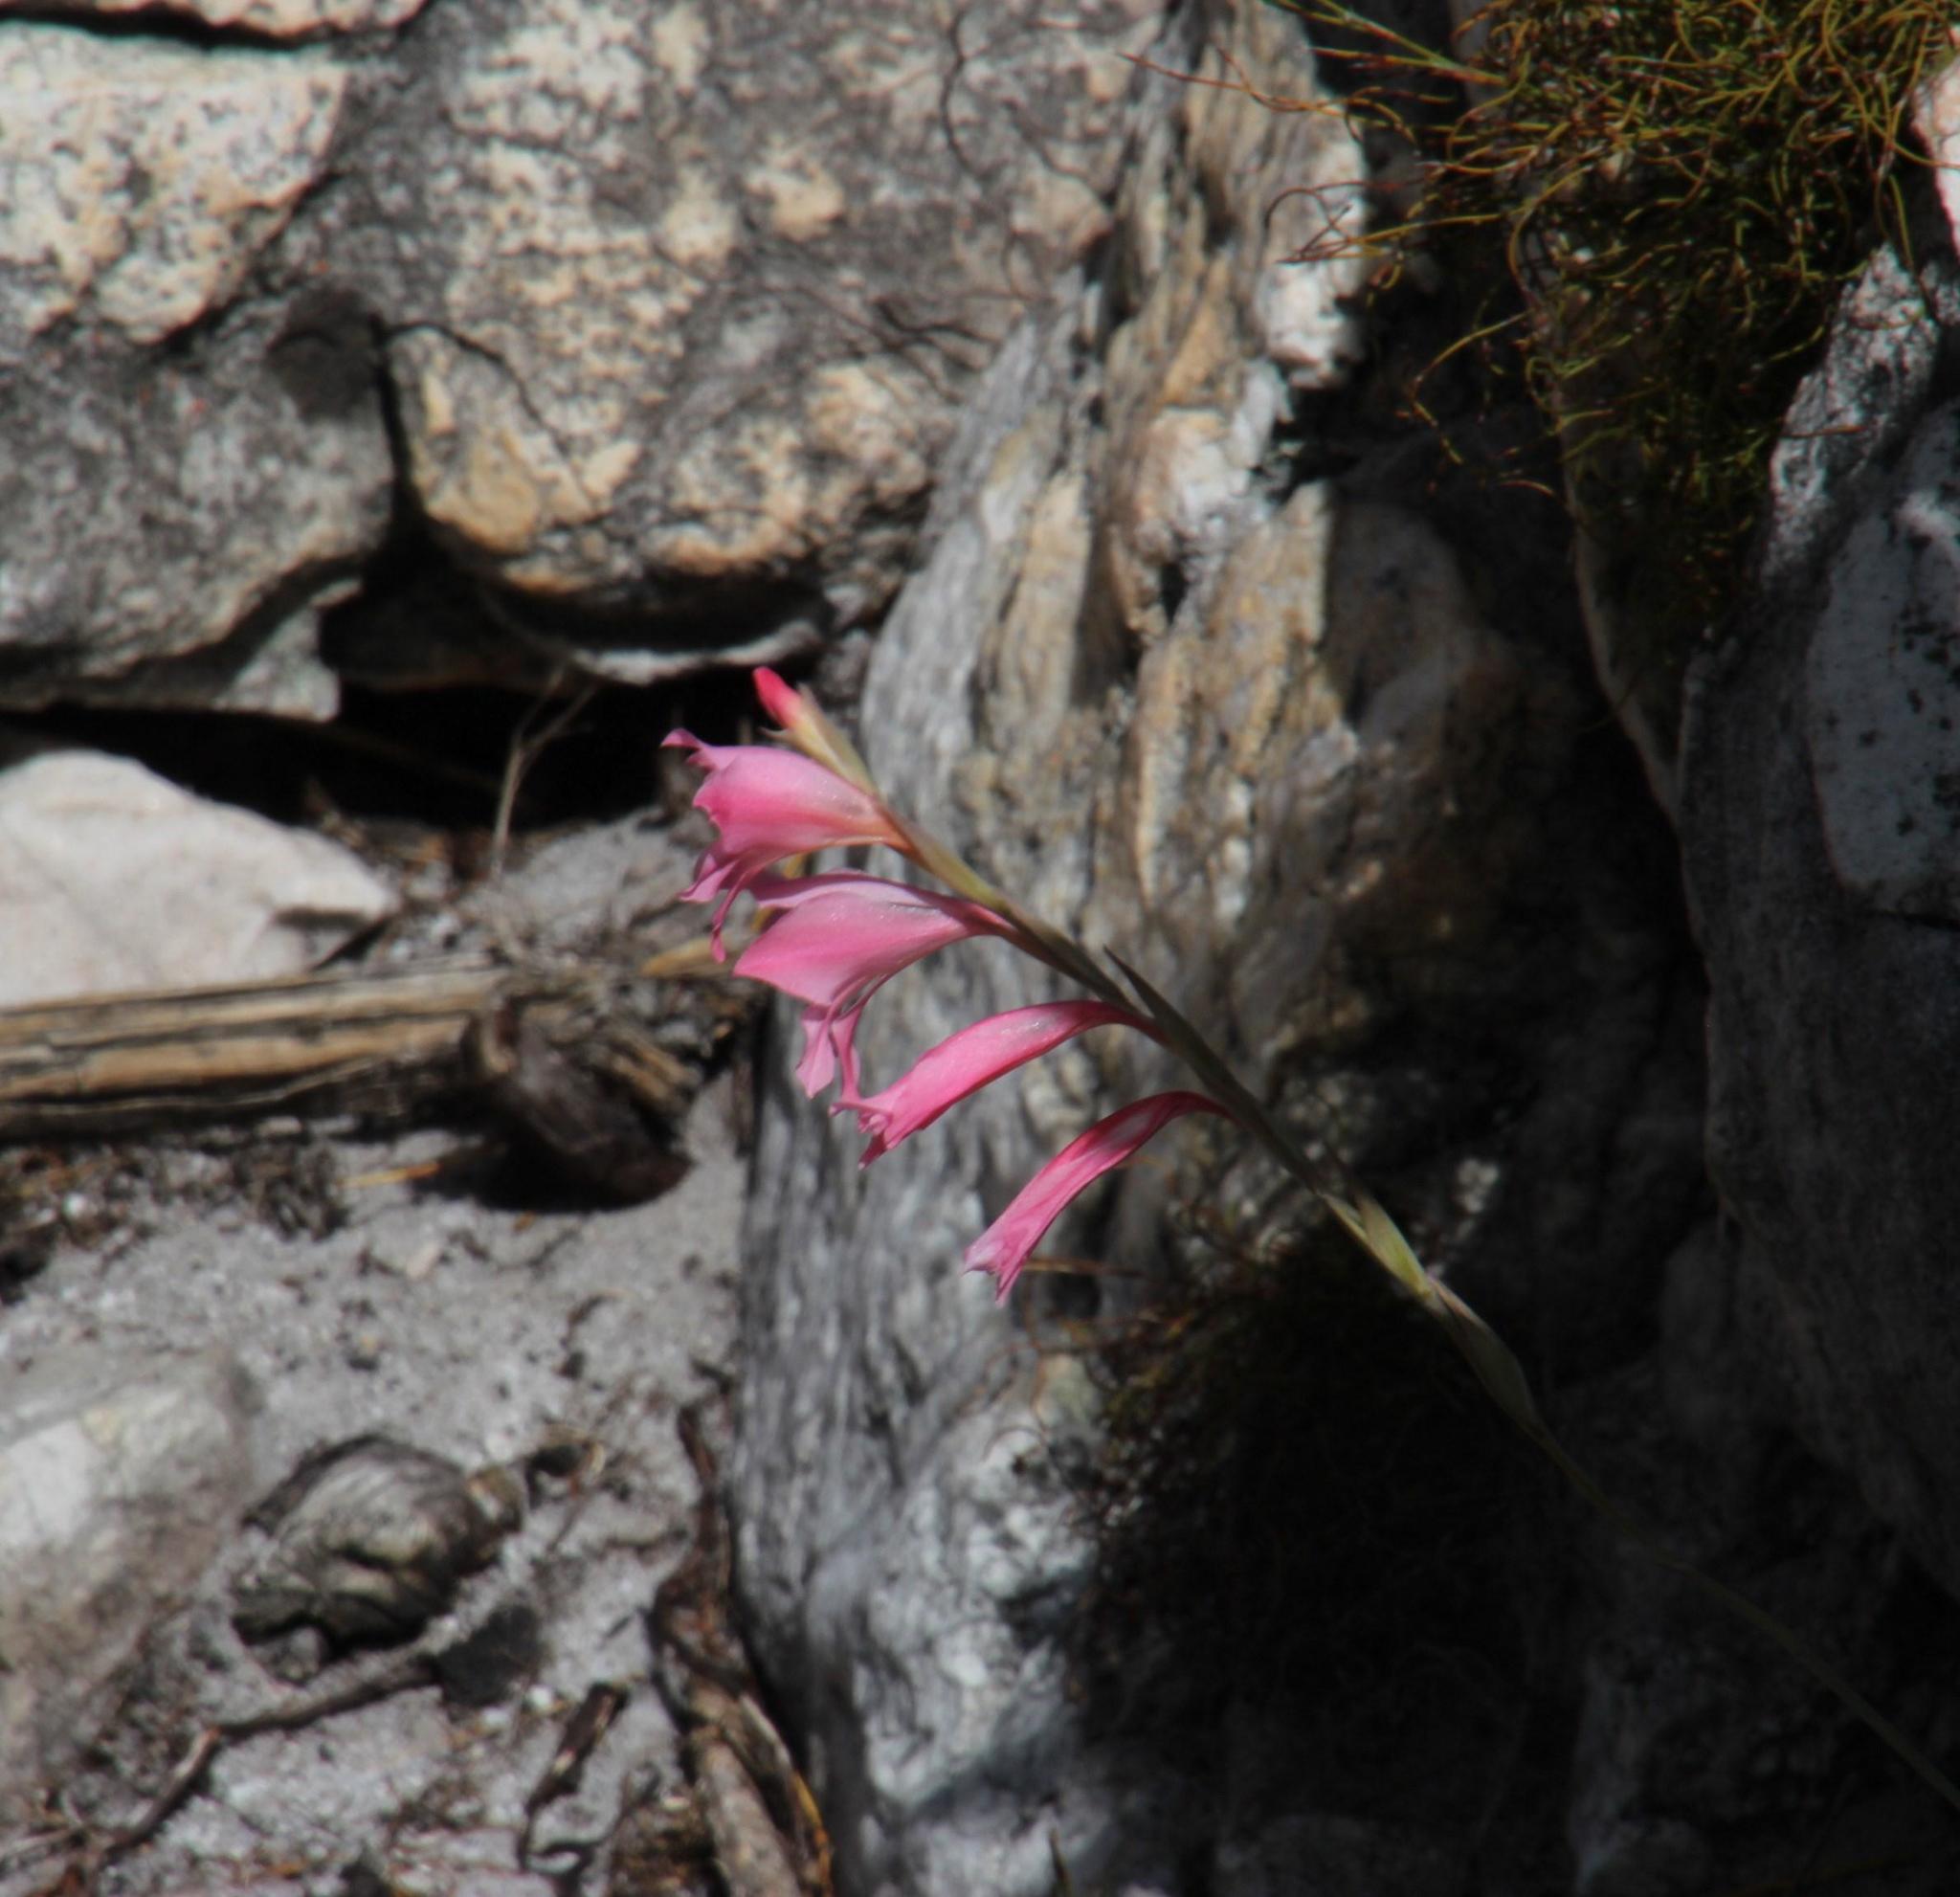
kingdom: Plantae
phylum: Tracheophyta
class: Liliopsida
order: Asparagales
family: Iridaceae
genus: Gladiolus
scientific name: Gladiolus brevifolius
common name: March pypie
